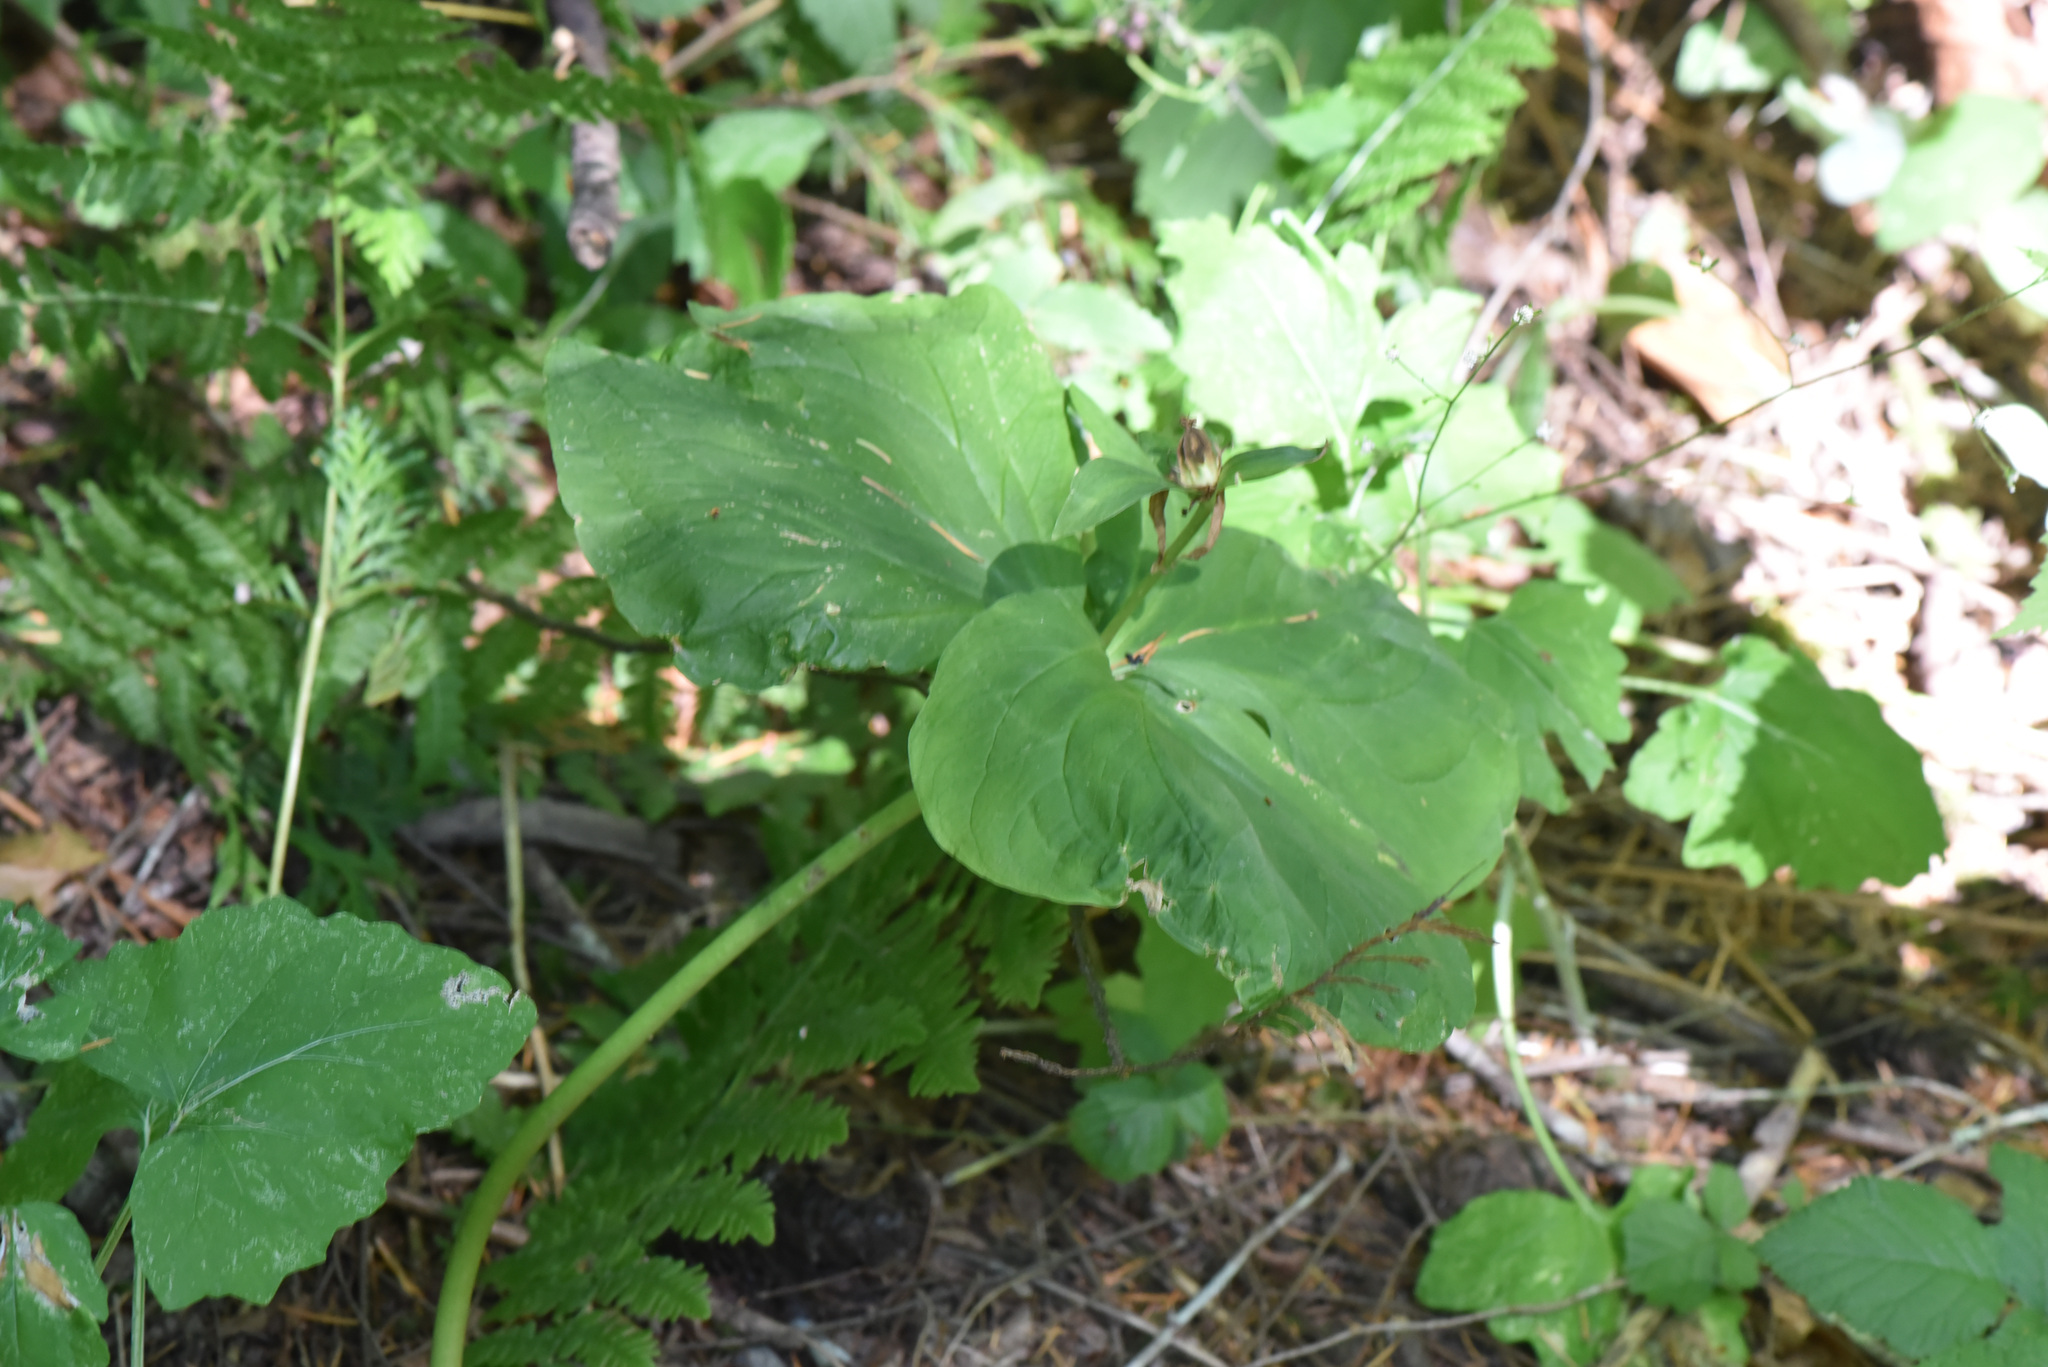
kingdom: Plantae
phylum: Tracheophyta
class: Liliopsida
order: Liliales
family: Melanthiaceae
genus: Trillium
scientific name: Trillium ovatum
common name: Pacific trillium
